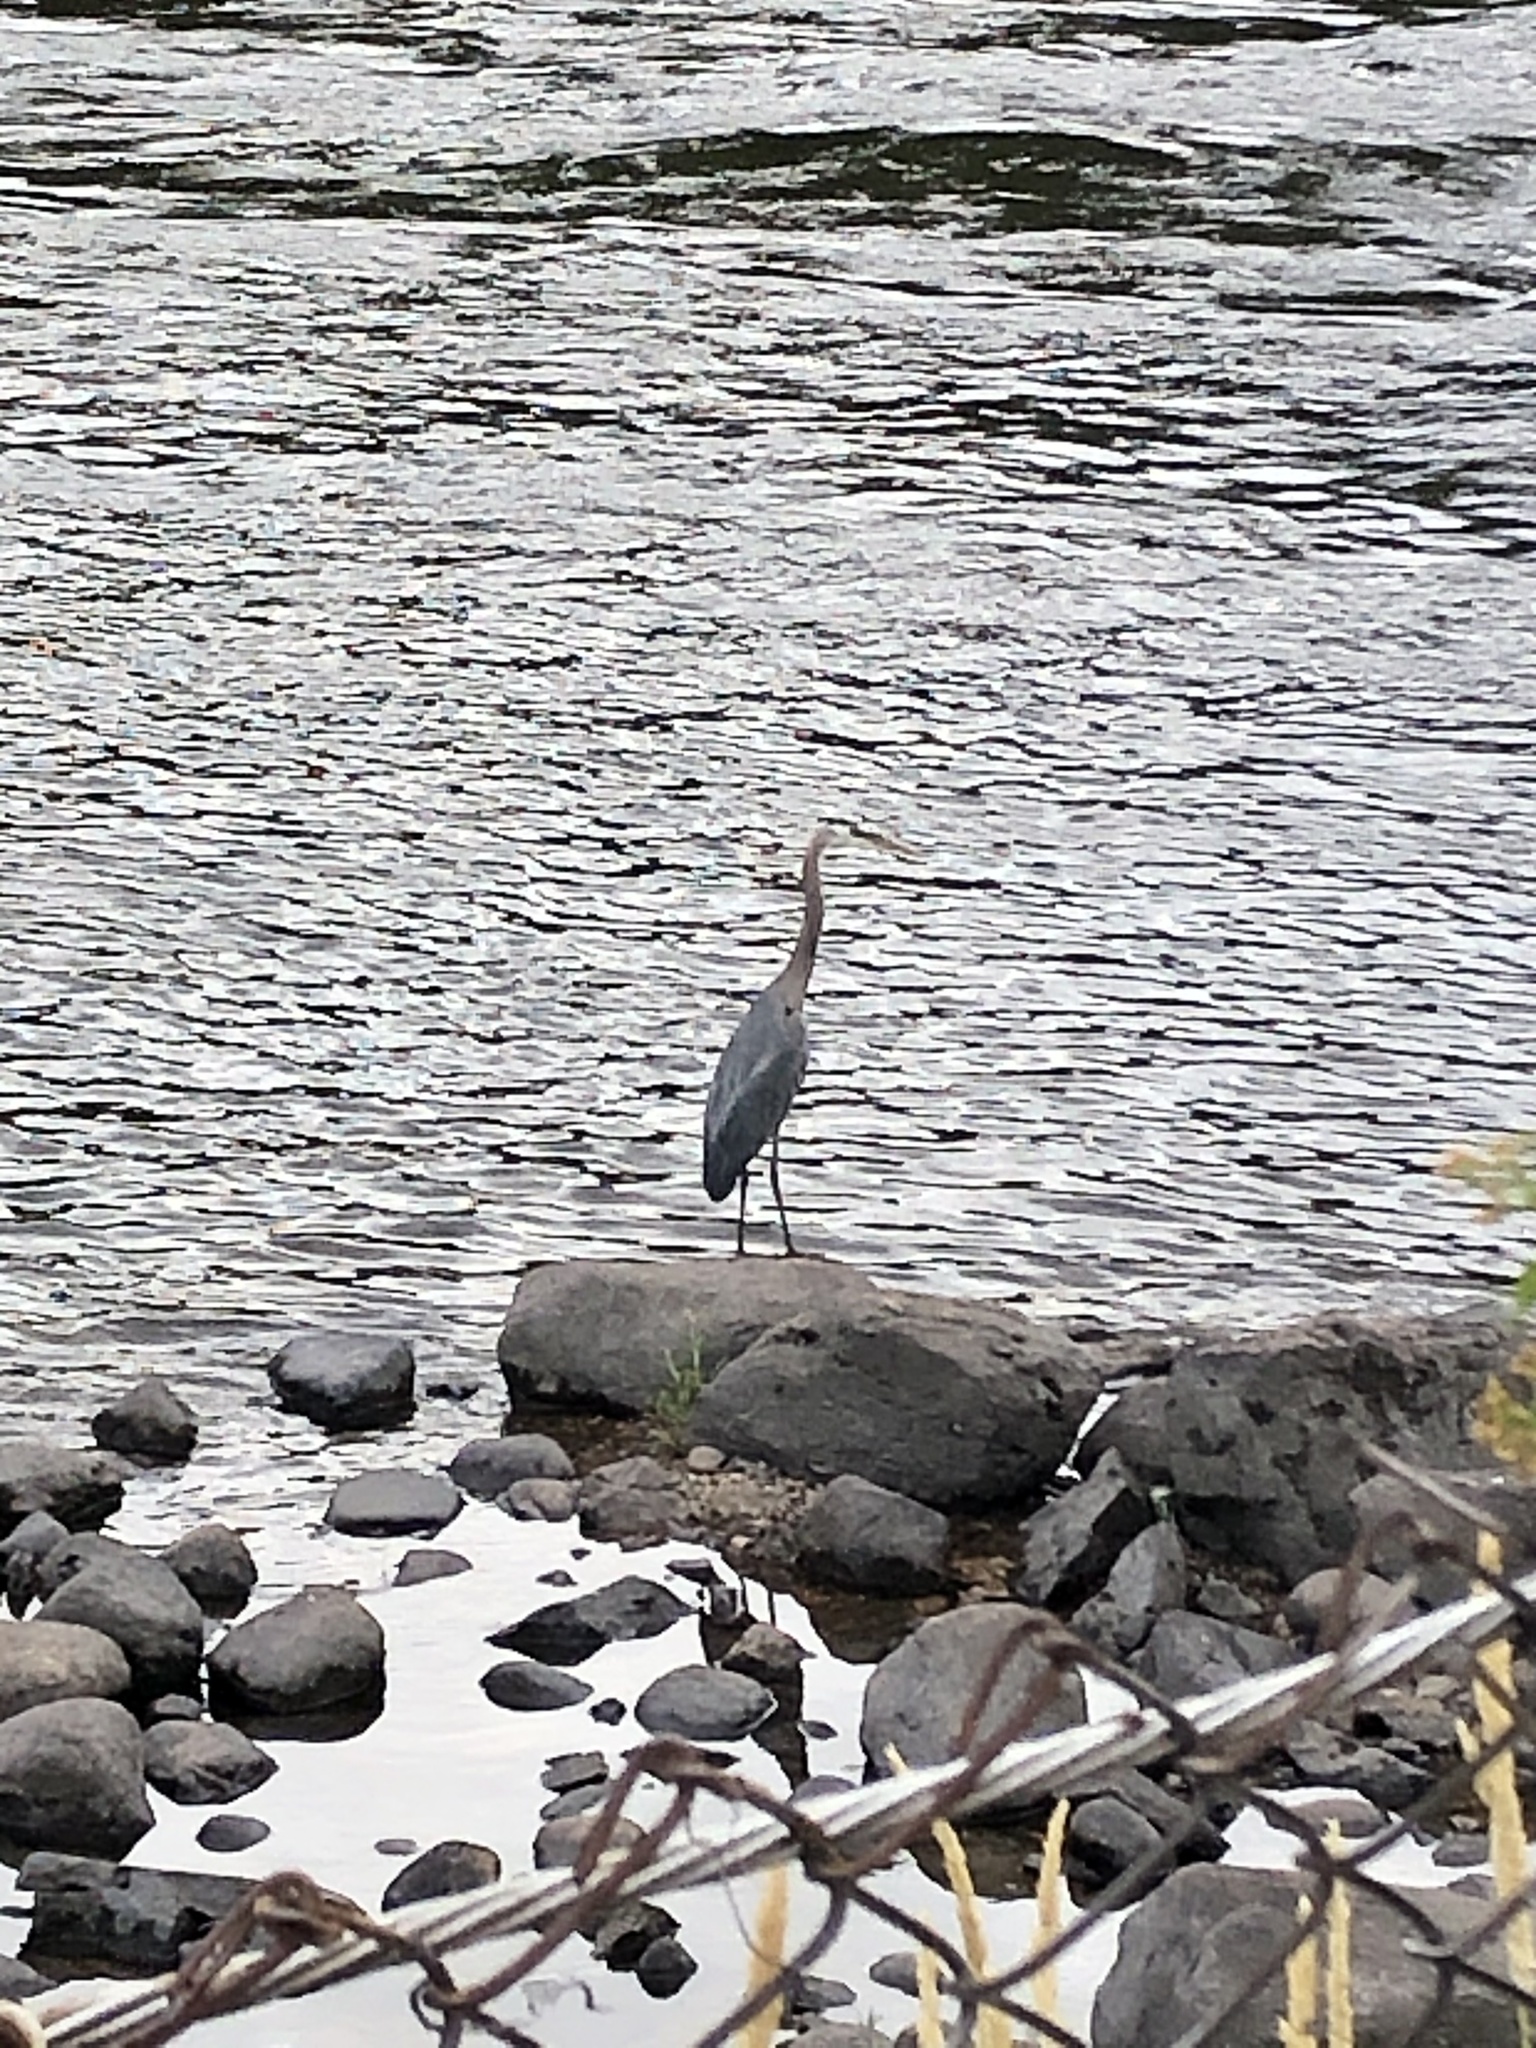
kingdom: Animalia
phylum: Chordata
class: Aves
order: Pelecaniformes
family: Ardeidae
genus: Ardea
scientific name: Ardea herodias
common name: Great blue heron
